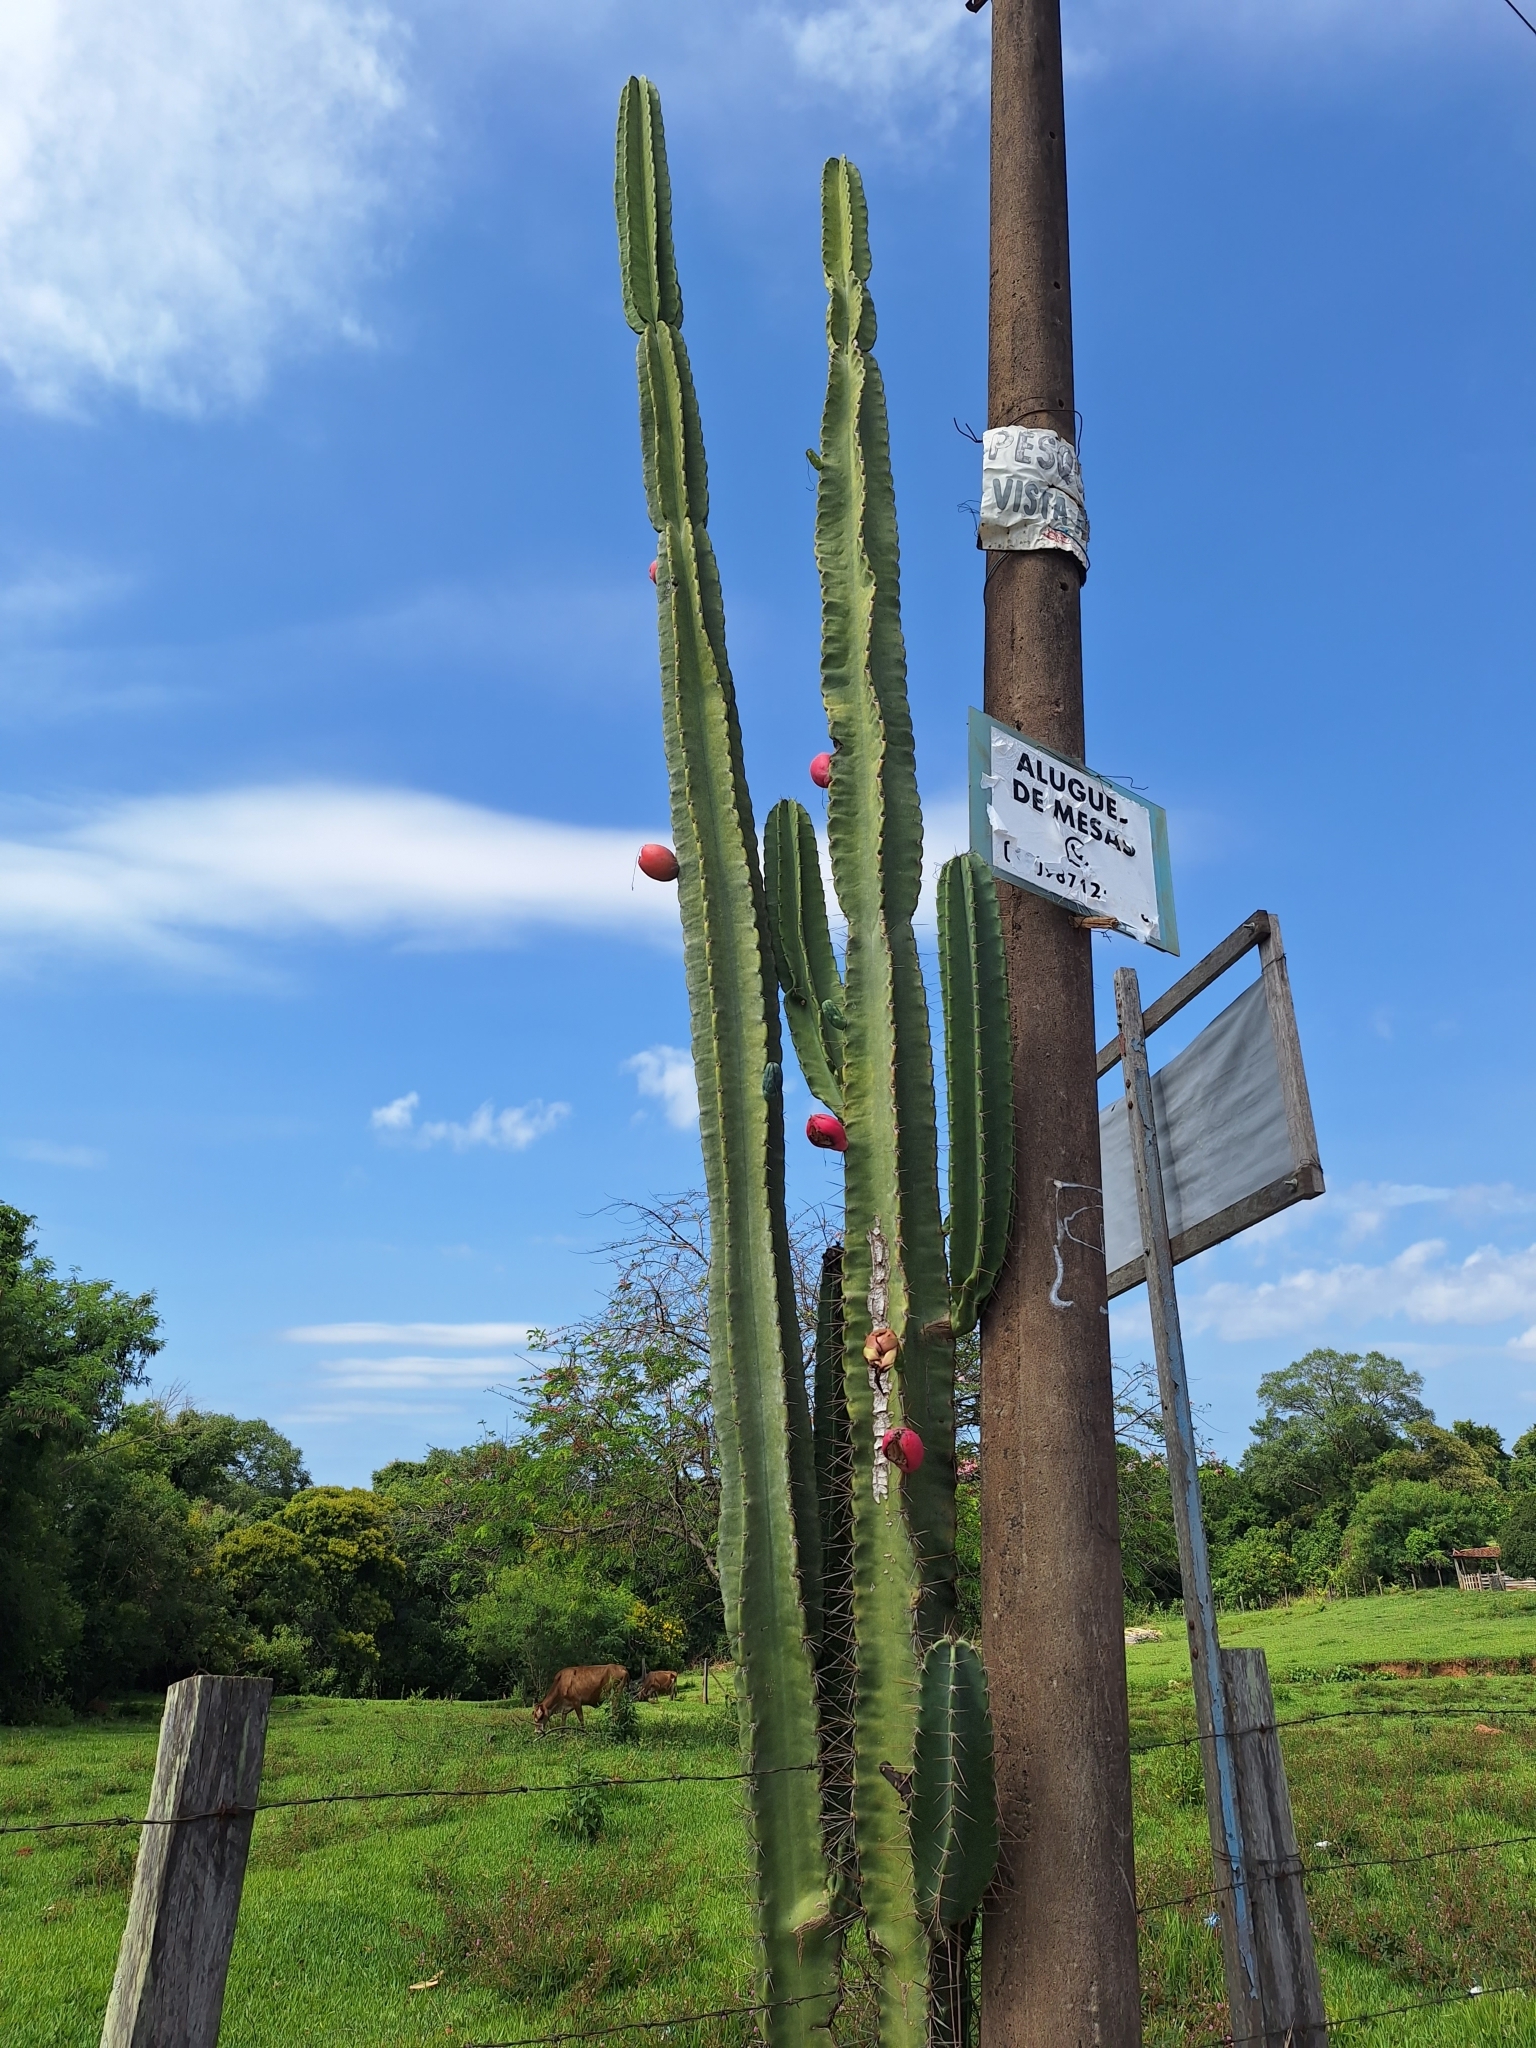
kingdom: Plantae
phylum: Tracheophyta
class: Magnoliopsida
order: Caryophyllales
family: Cactaceae
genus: Cereus
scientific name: Cereus hildmannianus
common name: Hedge cactus
